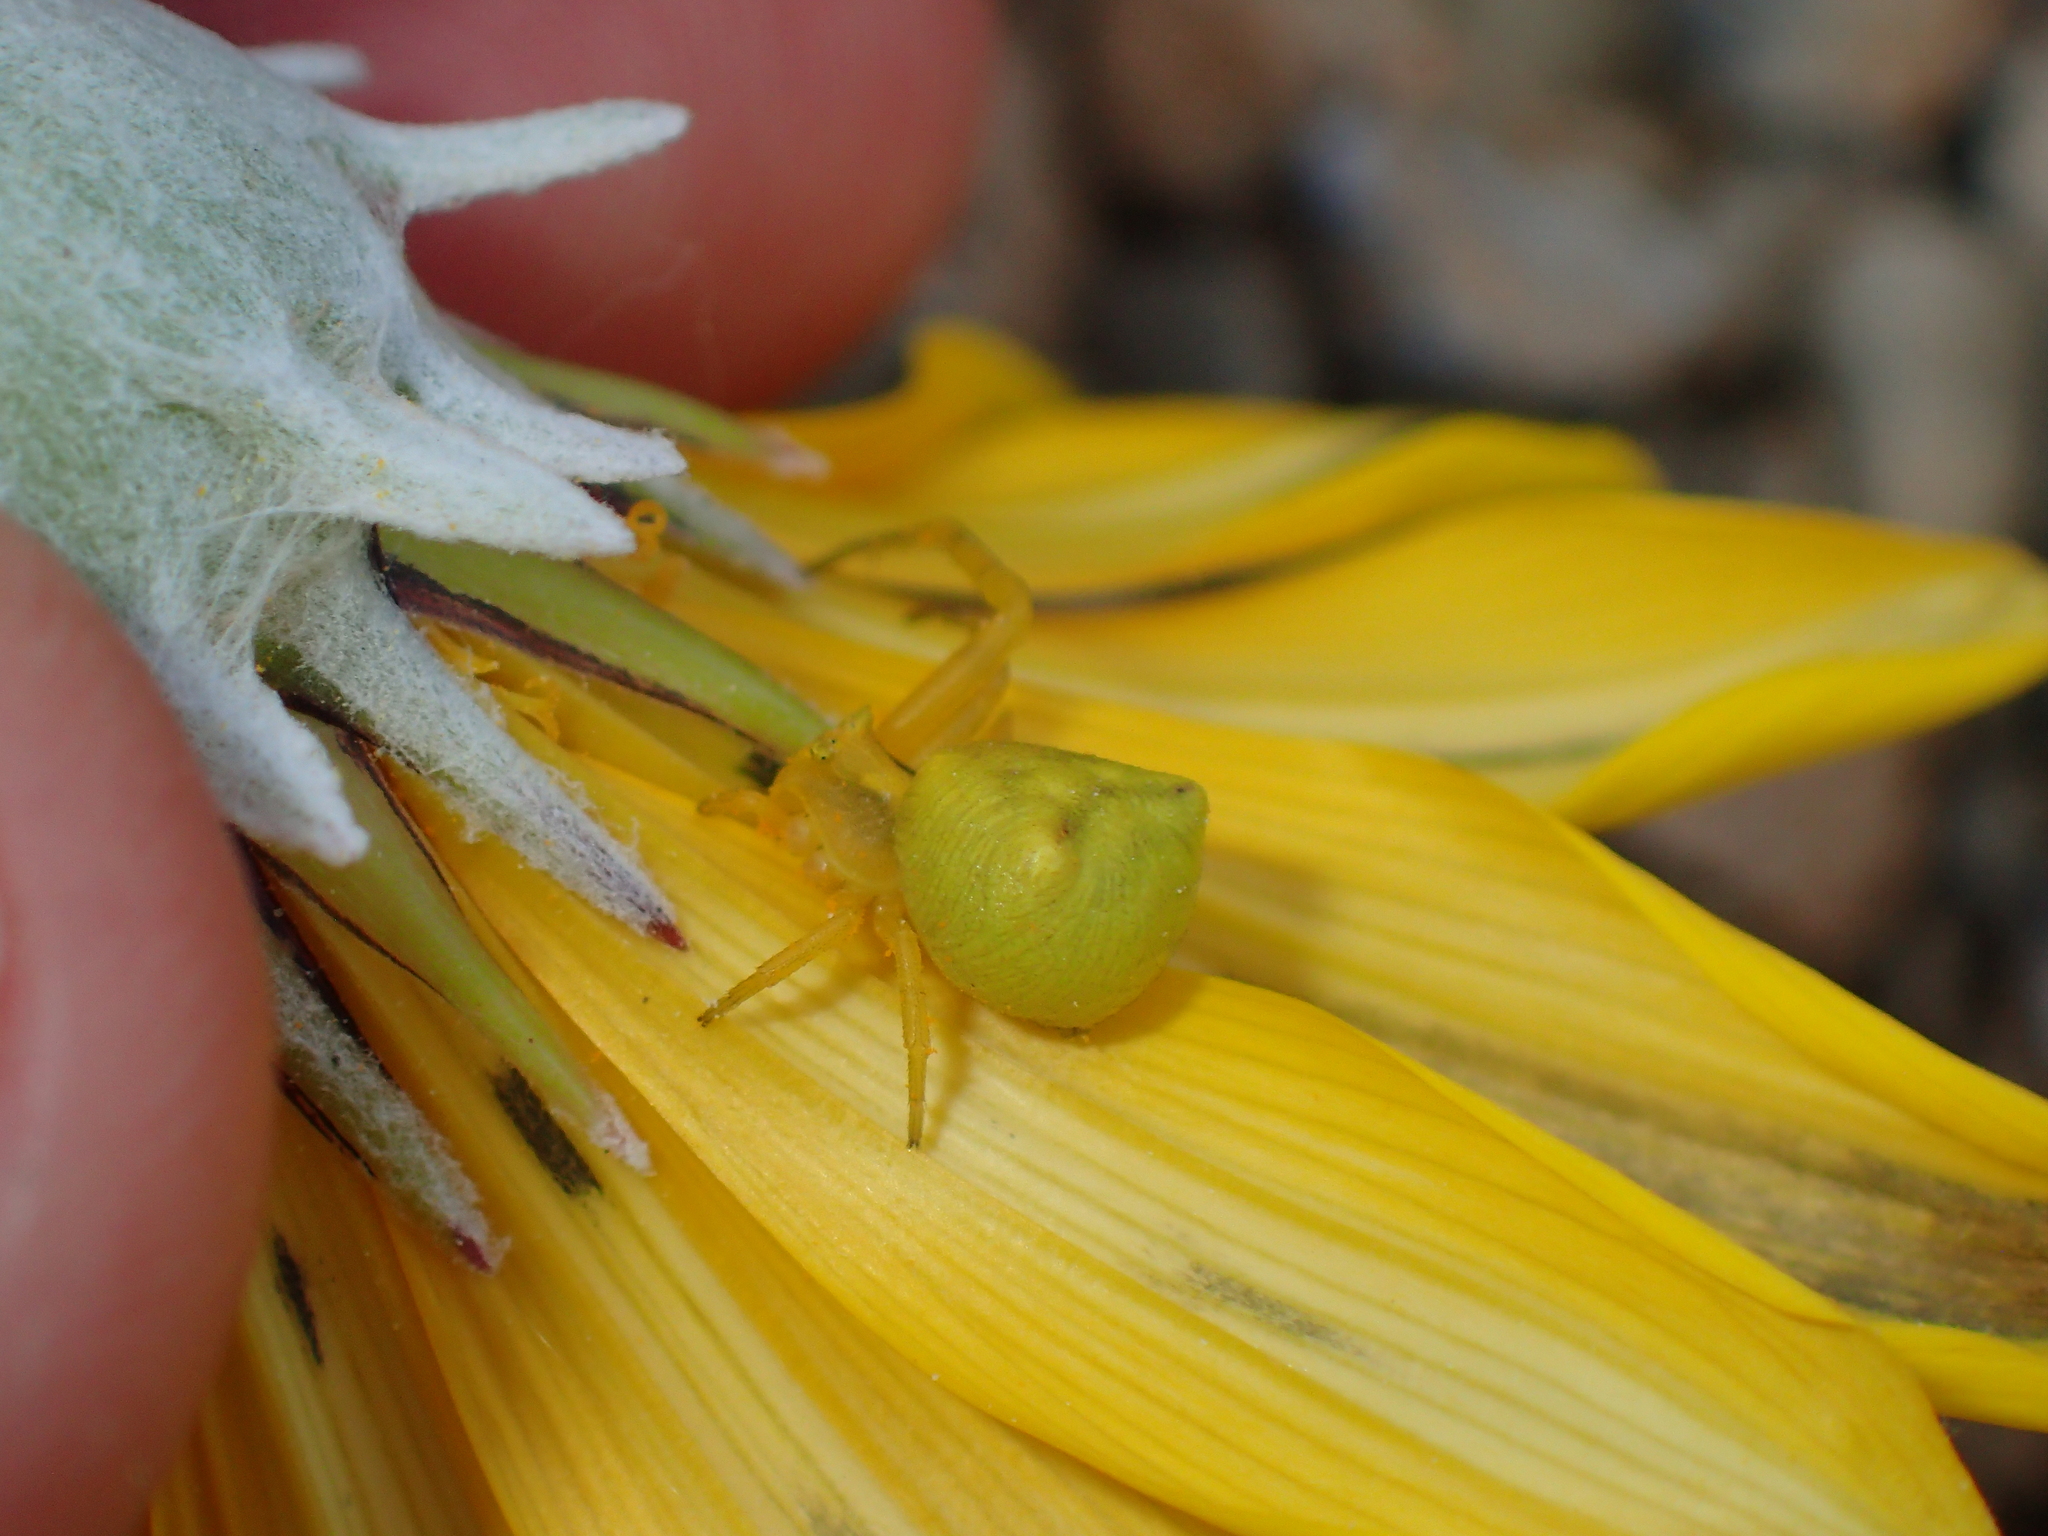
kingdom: Animalia
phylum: Arthropoda
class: Arachnida
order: Araneae
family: Thomisidae
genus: Thomisus
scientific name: Thomisus onustus
